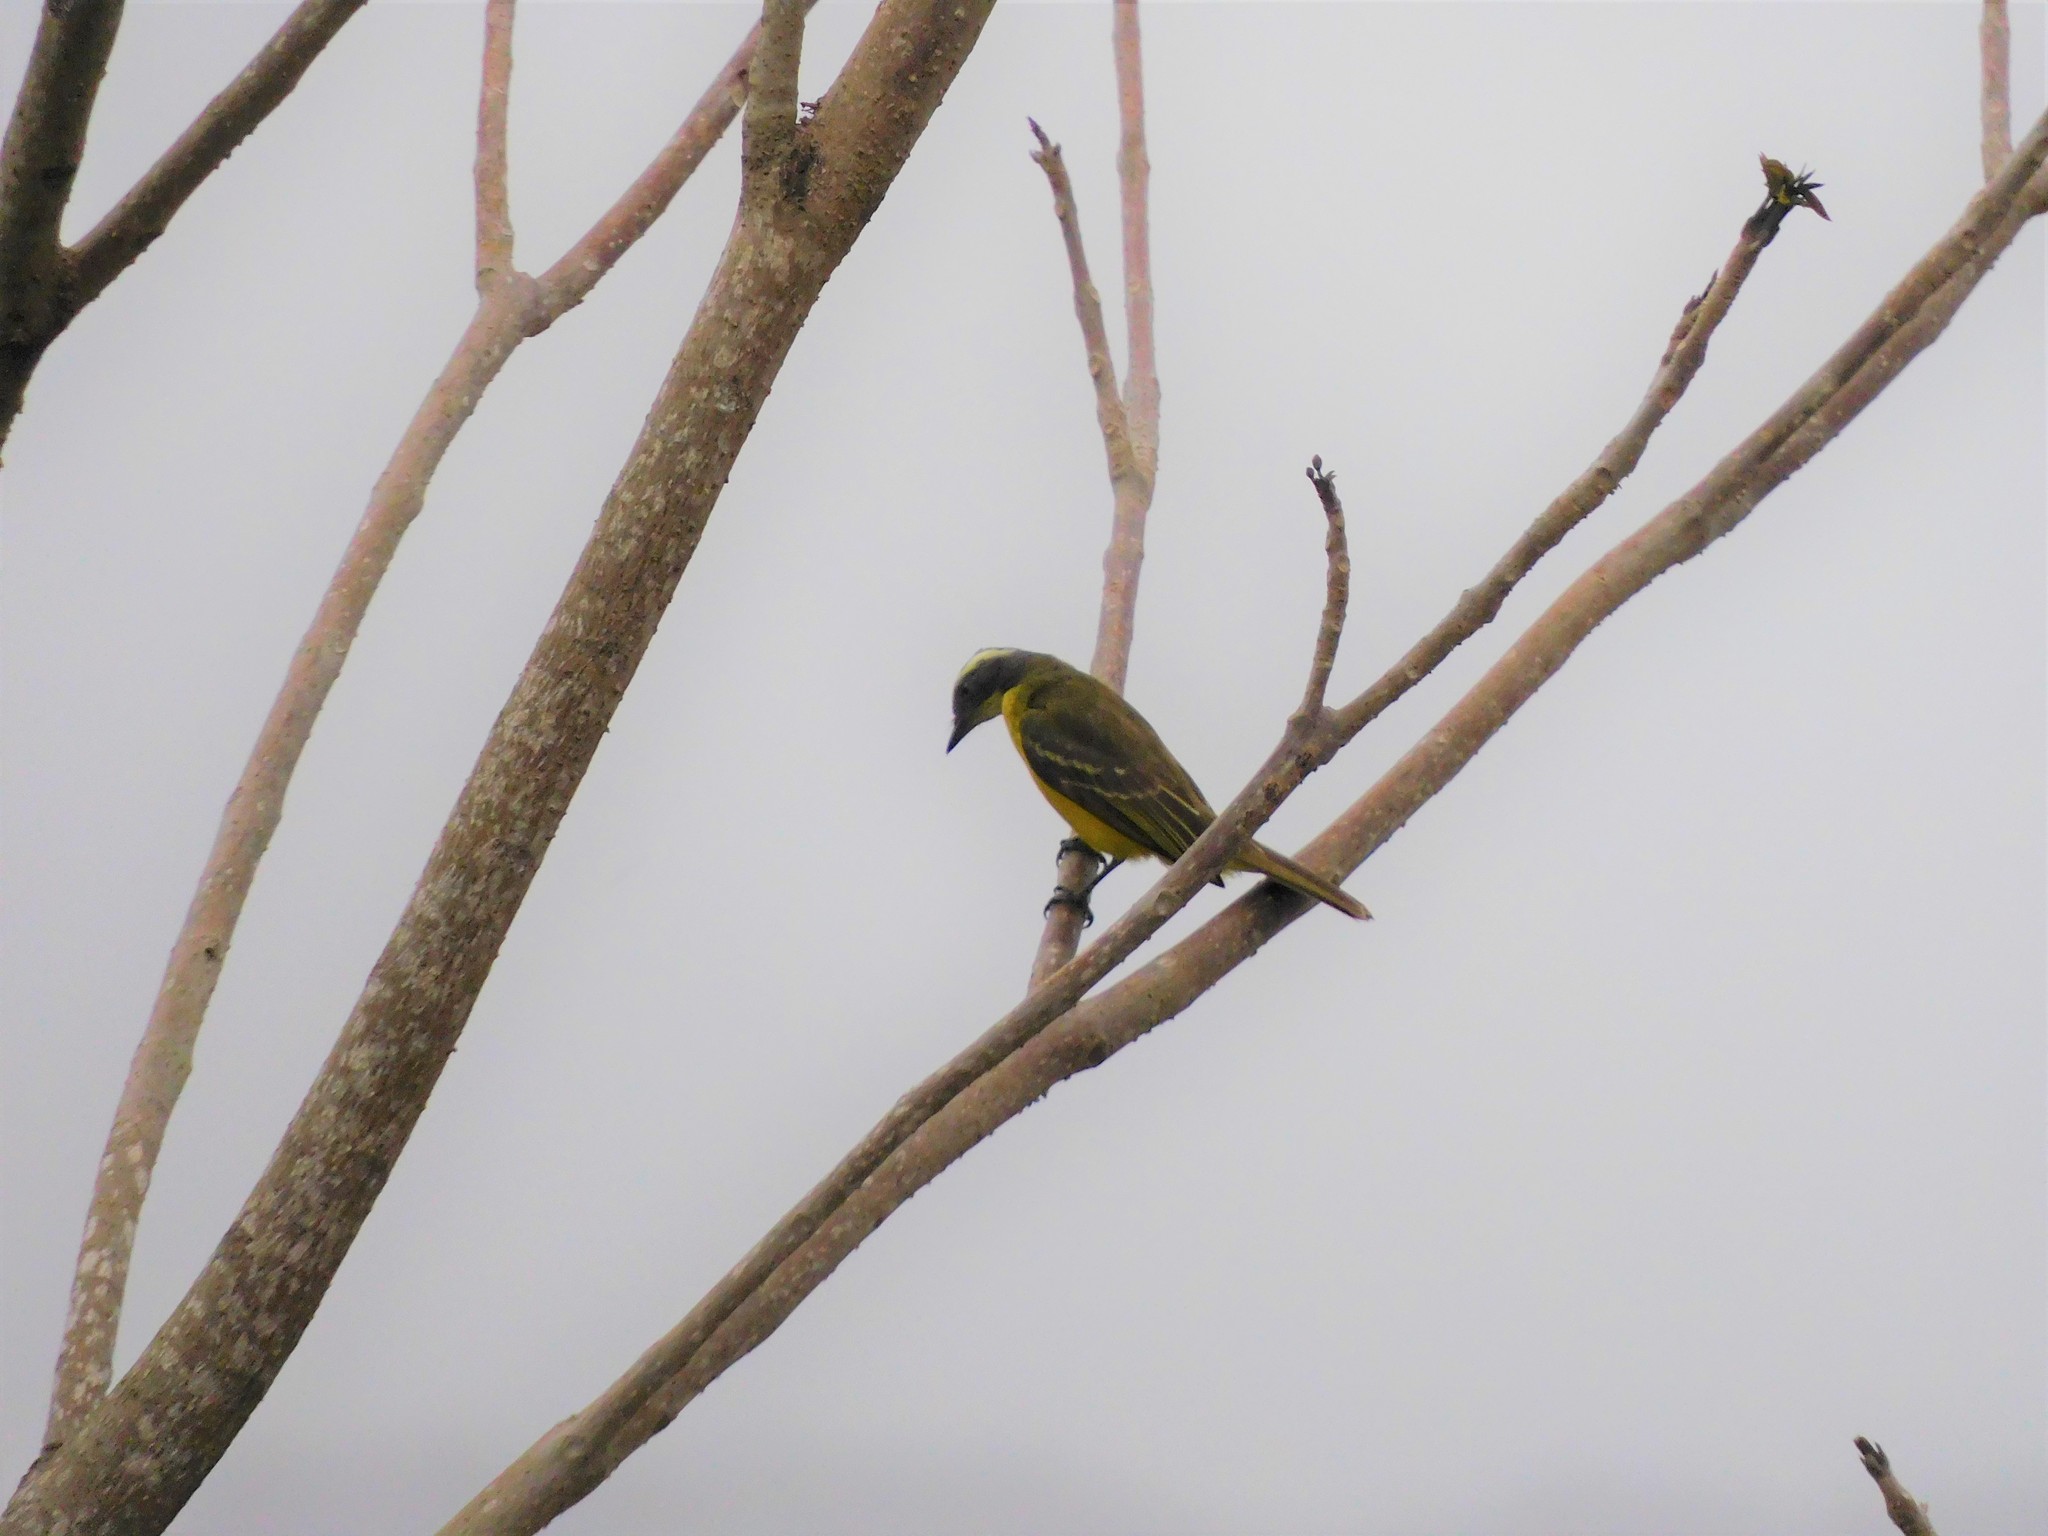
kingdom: Animalia
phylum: Chordata
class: Aves
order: Passeriformes
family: Tyrannidae
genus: Myiozetetes
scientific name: Myiozetetes similis
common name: Social flycatcher
